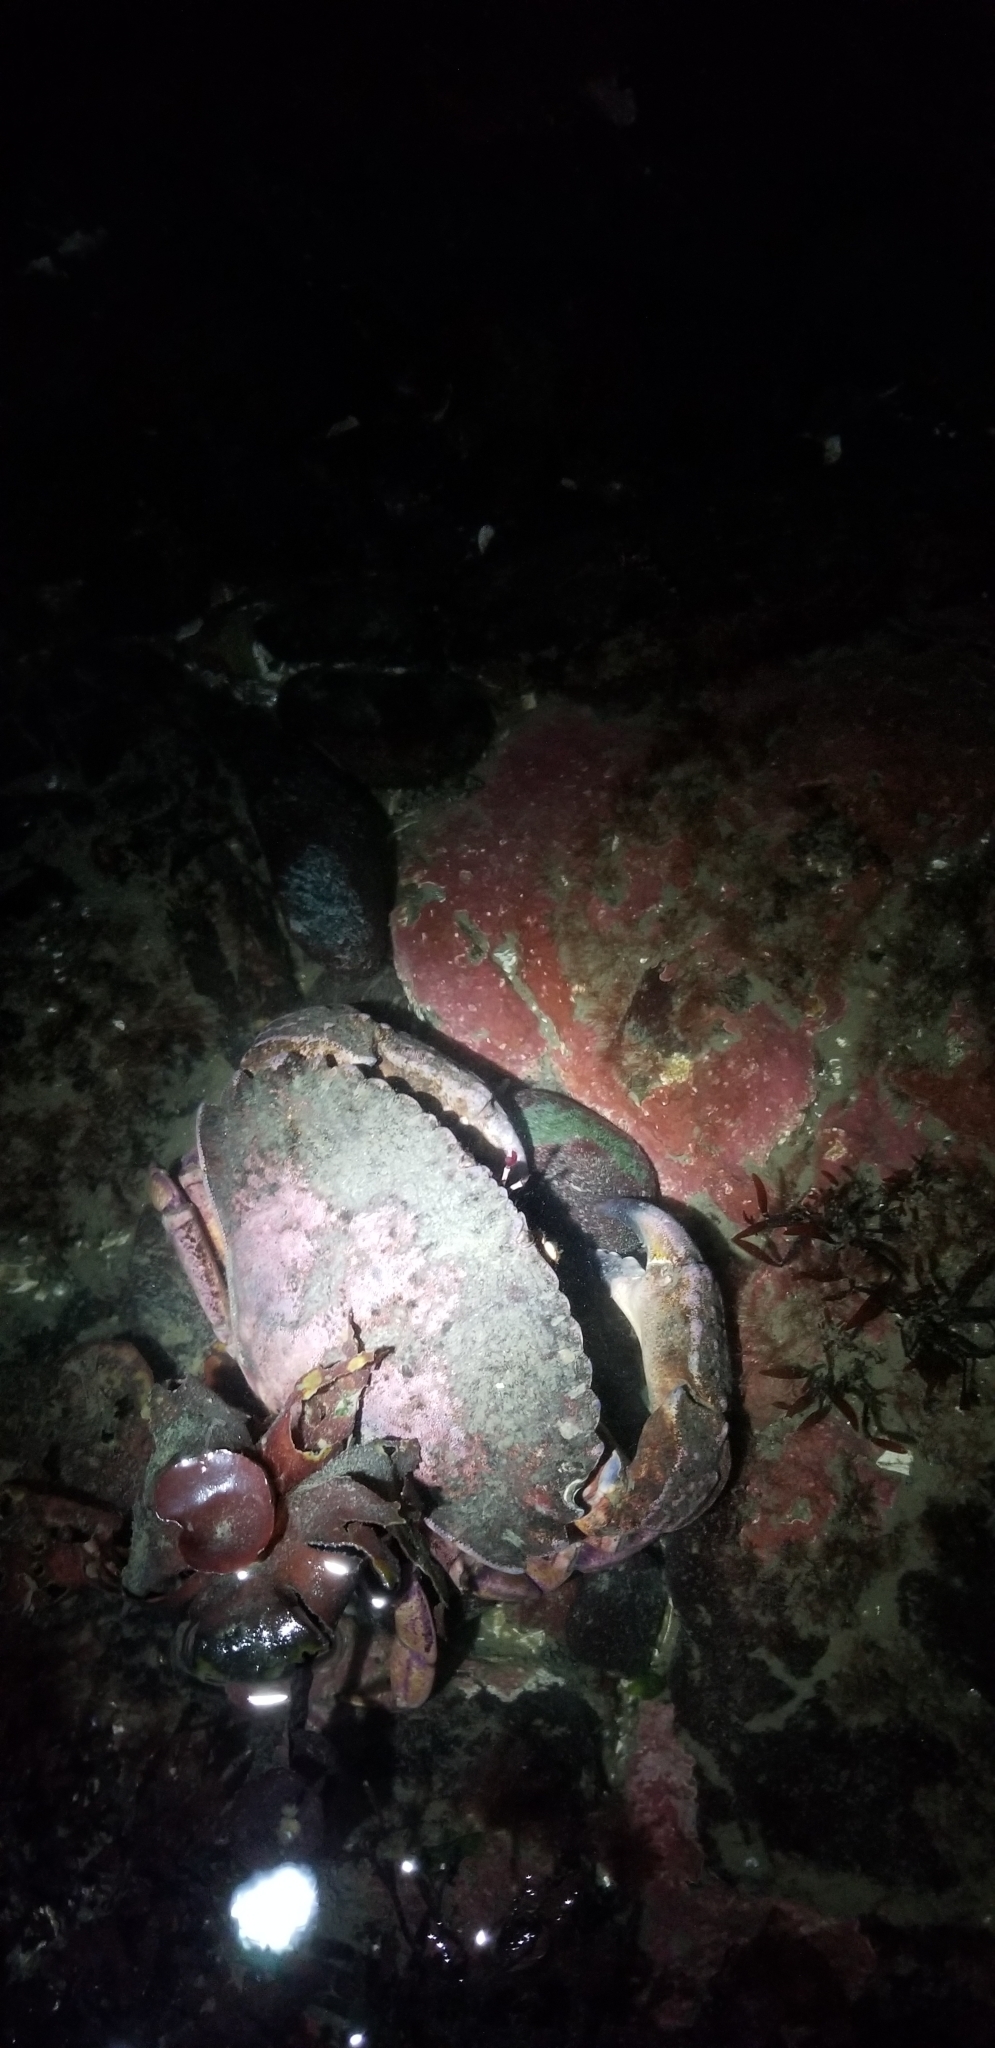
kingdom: Animalia
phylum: Arthropoda
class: Malacostraca
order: Decapoda
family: Cancridae
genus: Cancer
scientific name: Cancer productus
